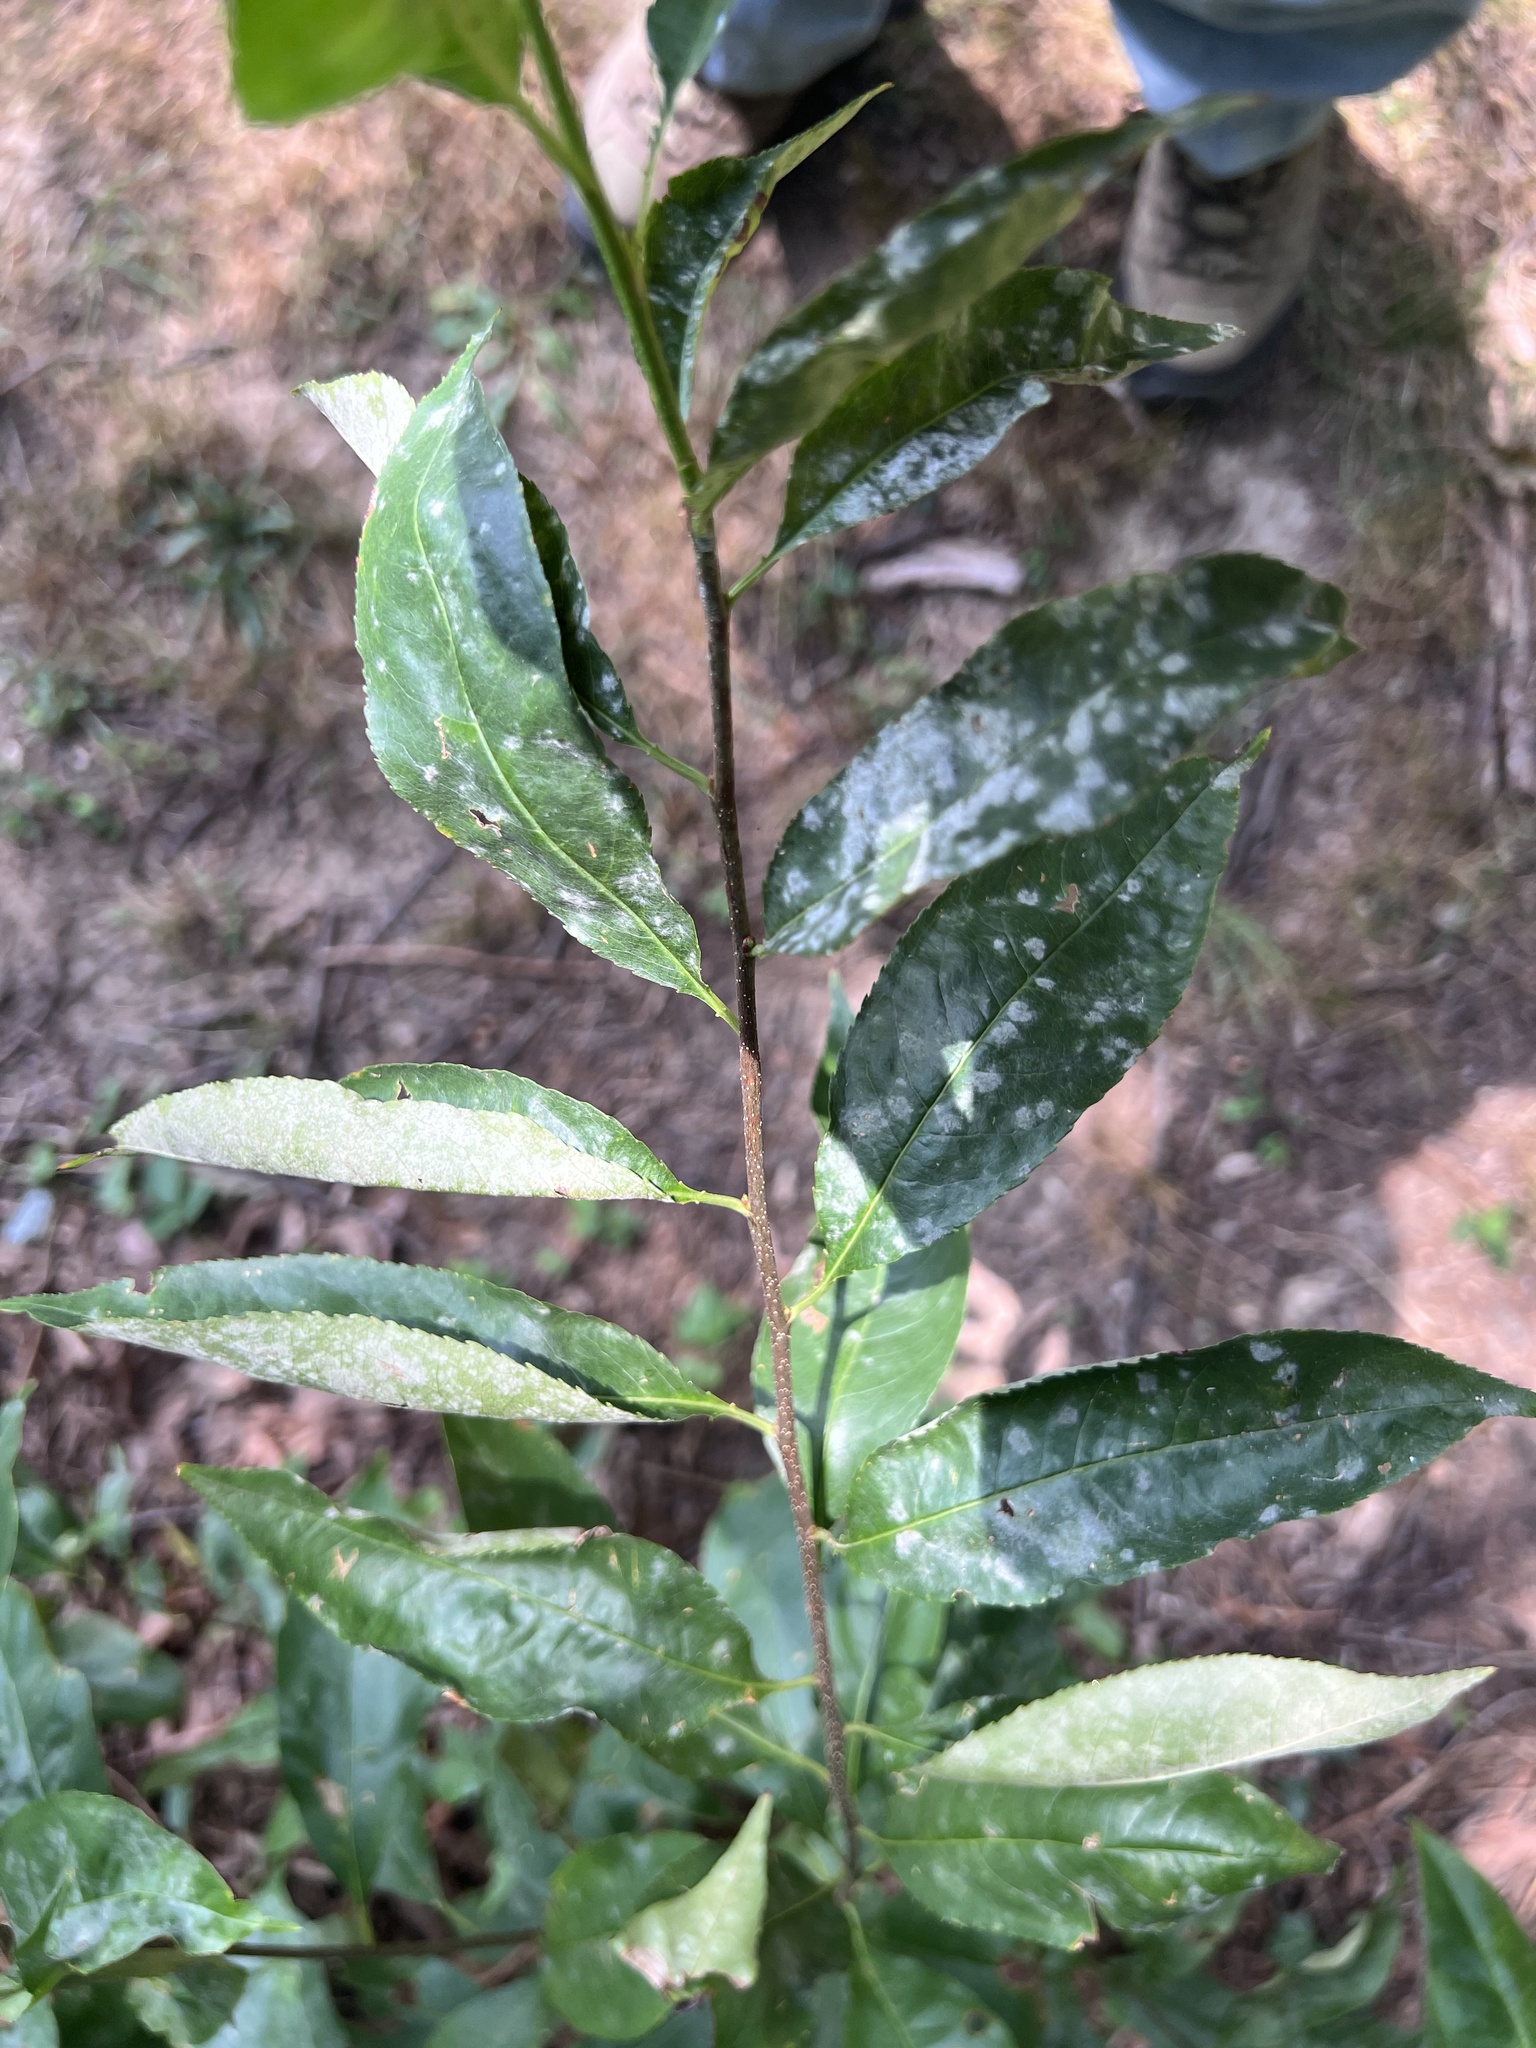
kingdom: Fungi
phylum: Ascomycota
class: Leotiomycetes
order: Helotiales
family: Erysiphaceae
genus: Podosphaera
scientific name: Podosphaera prunicola
